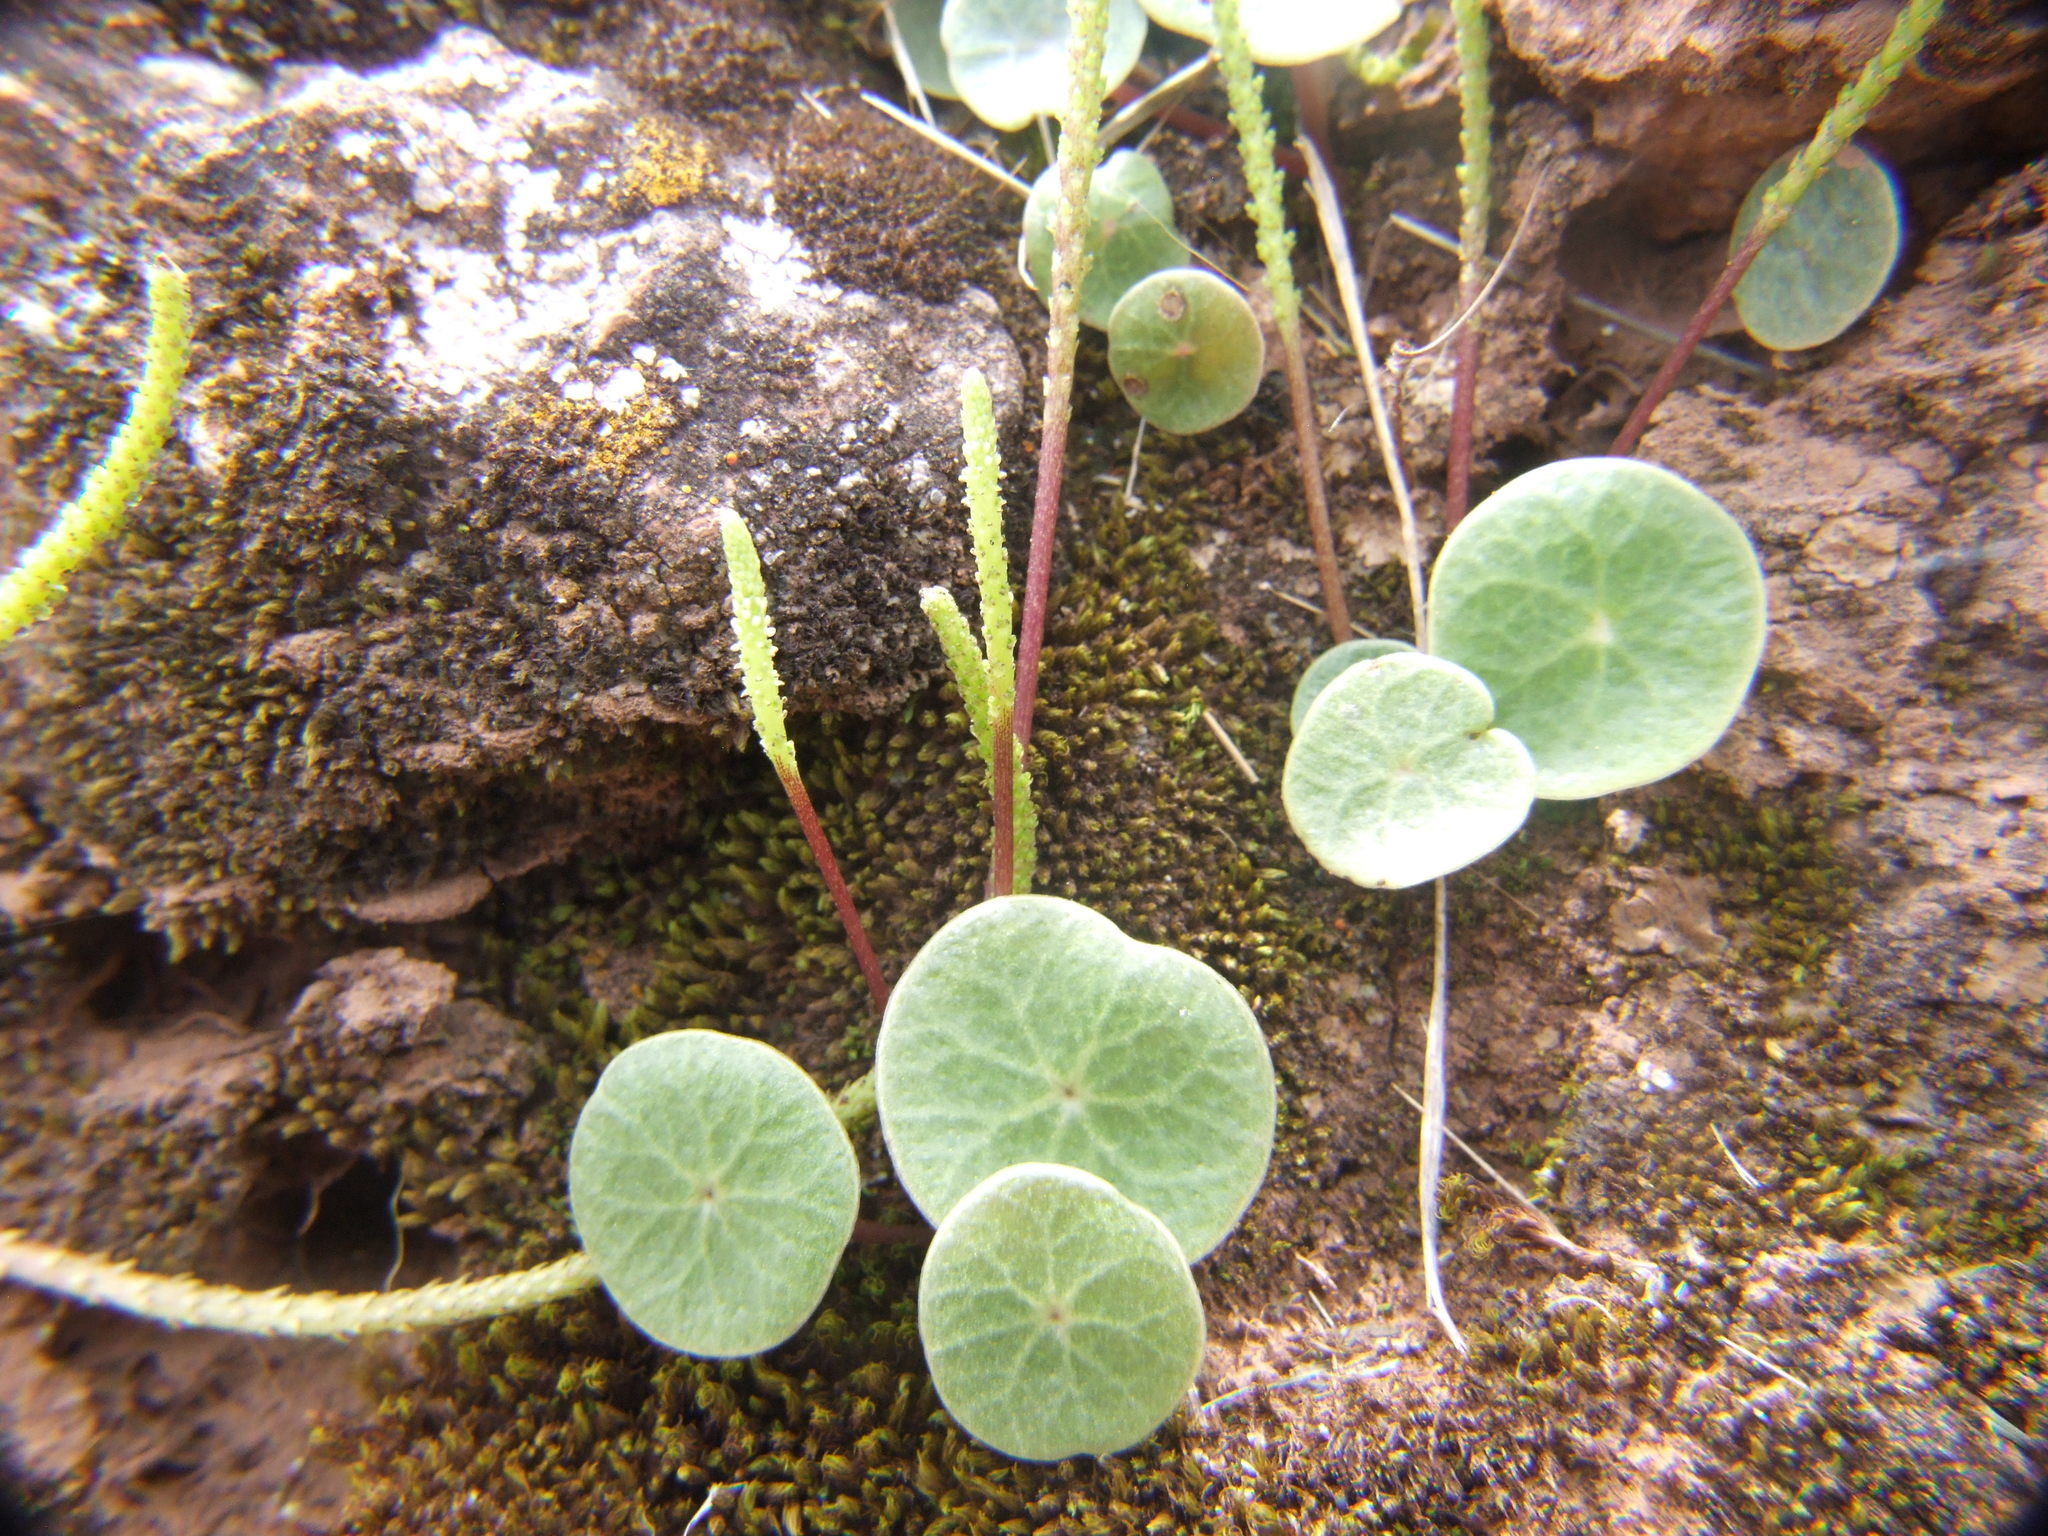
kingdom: Plantae
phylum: Tracheophyta
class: Magnoliopsida
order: Piperales
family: Piperaceae
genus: Peperomia
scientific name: Peperomia polycephala
